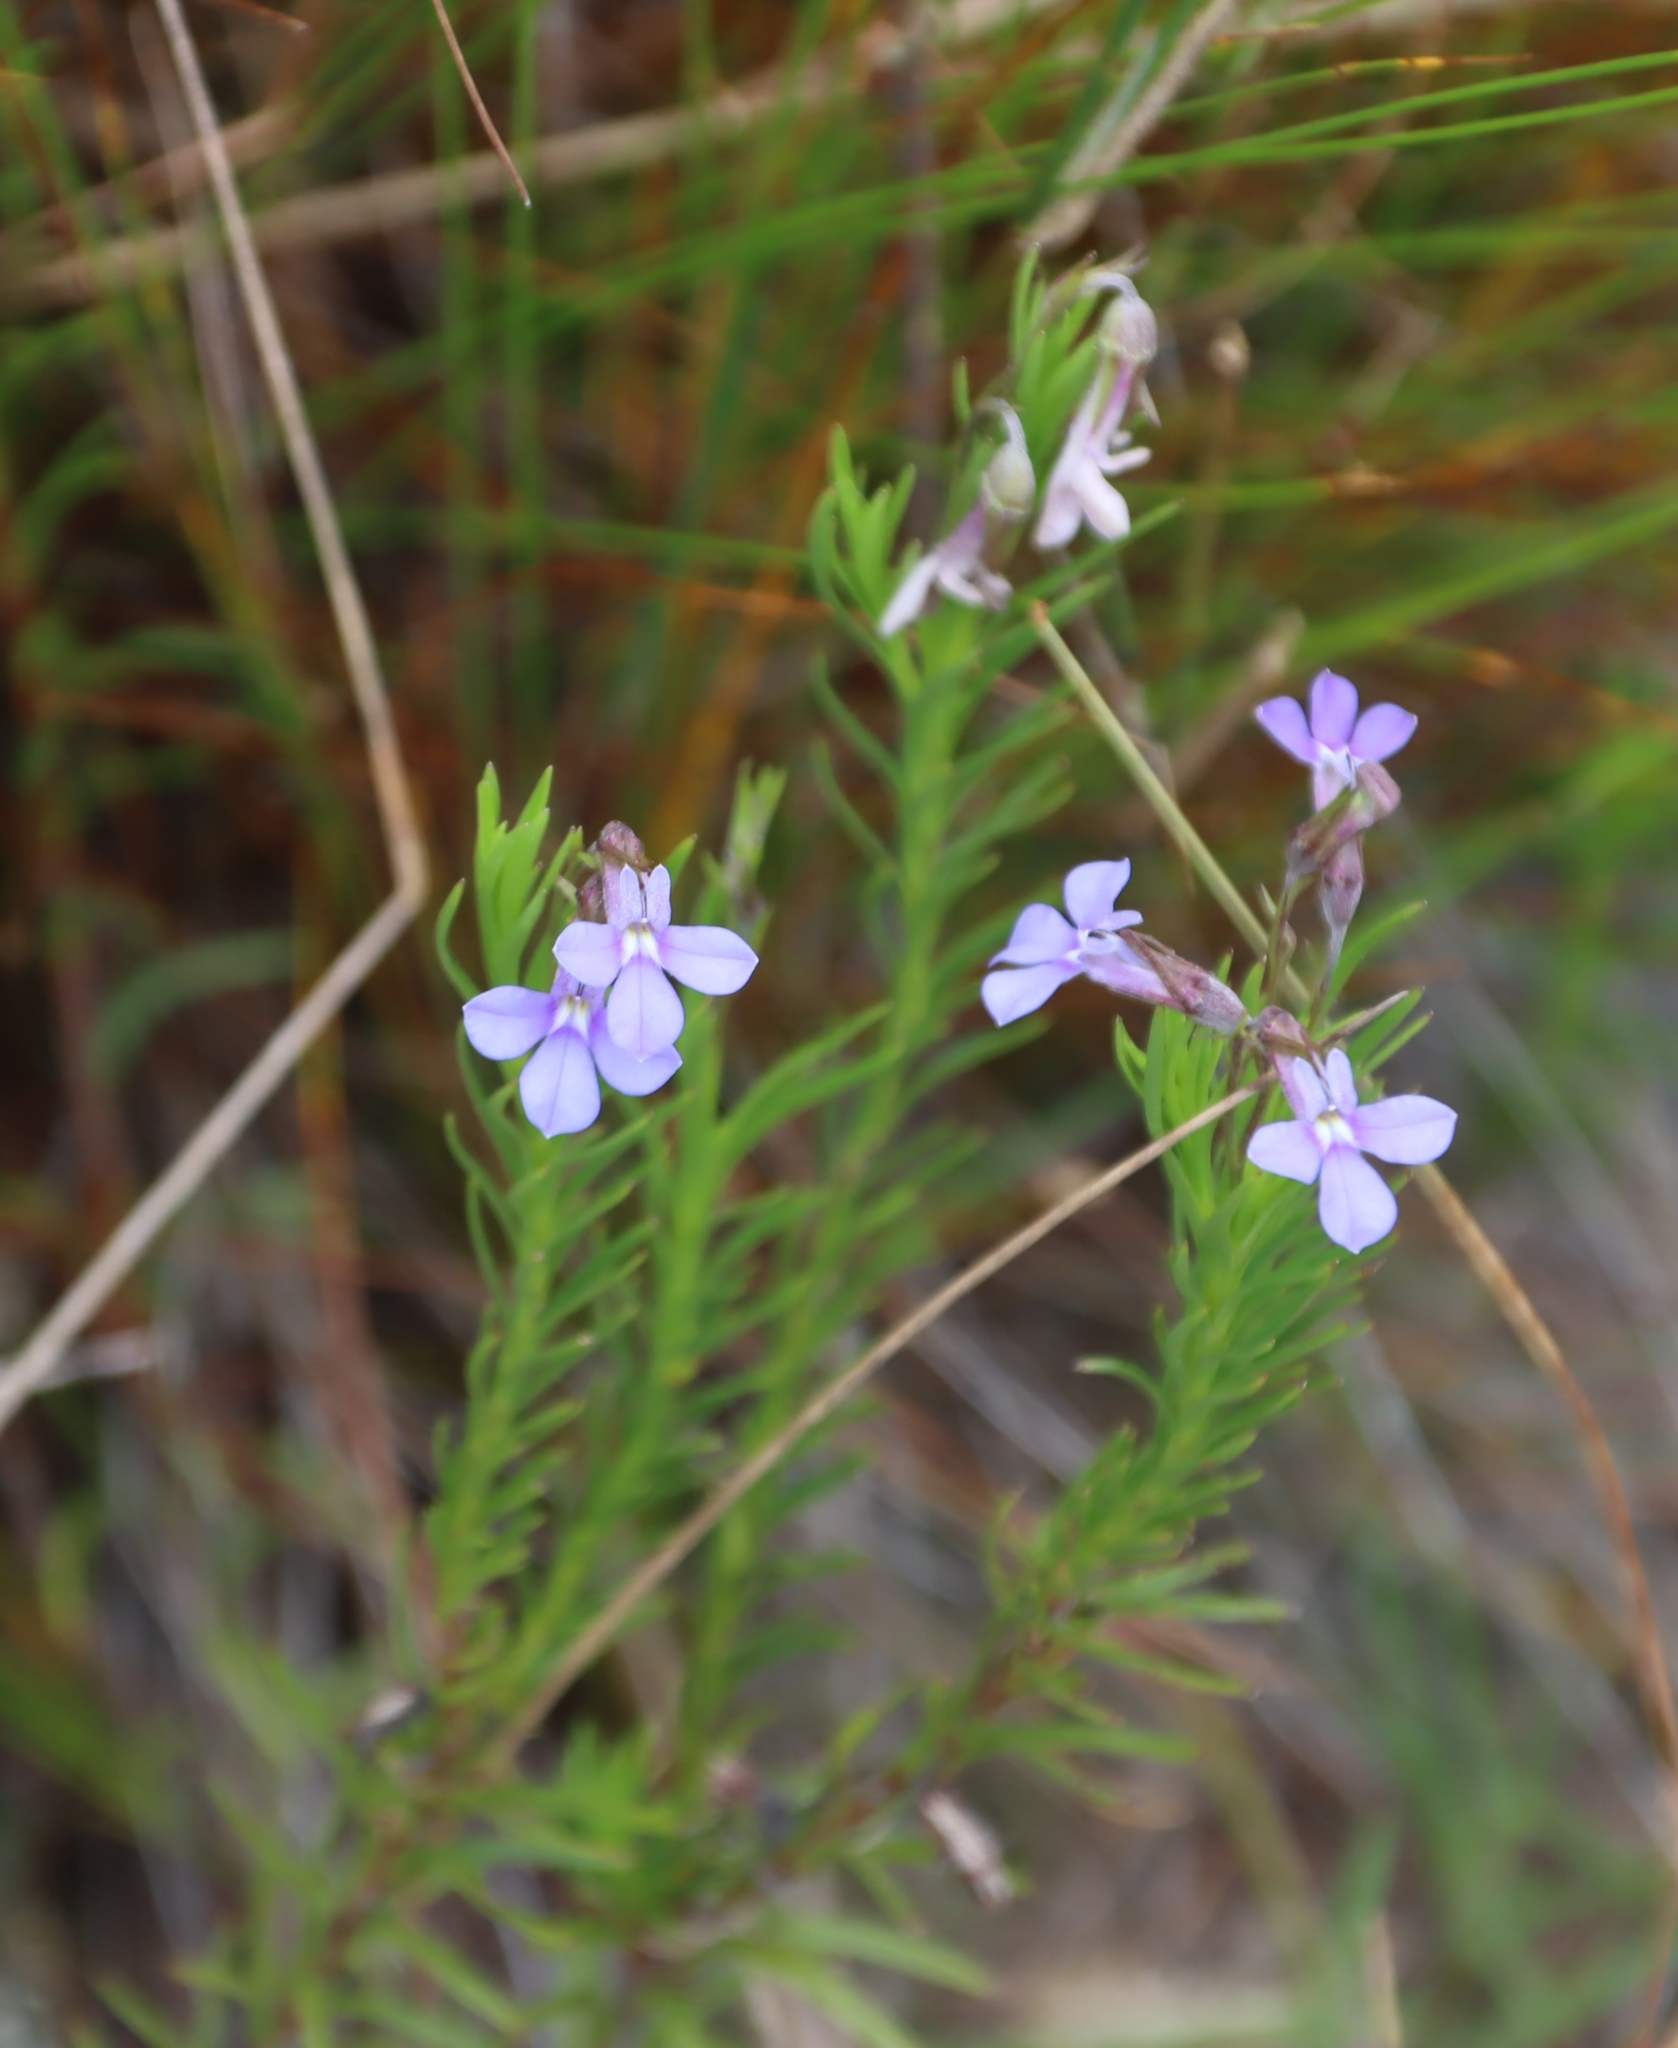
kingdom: Plantae
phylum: Tracheophyta
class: Magnoliopsida
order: Asterales
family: Campanulaceae
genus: Lobelia
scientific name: Lobelia pinifolia
